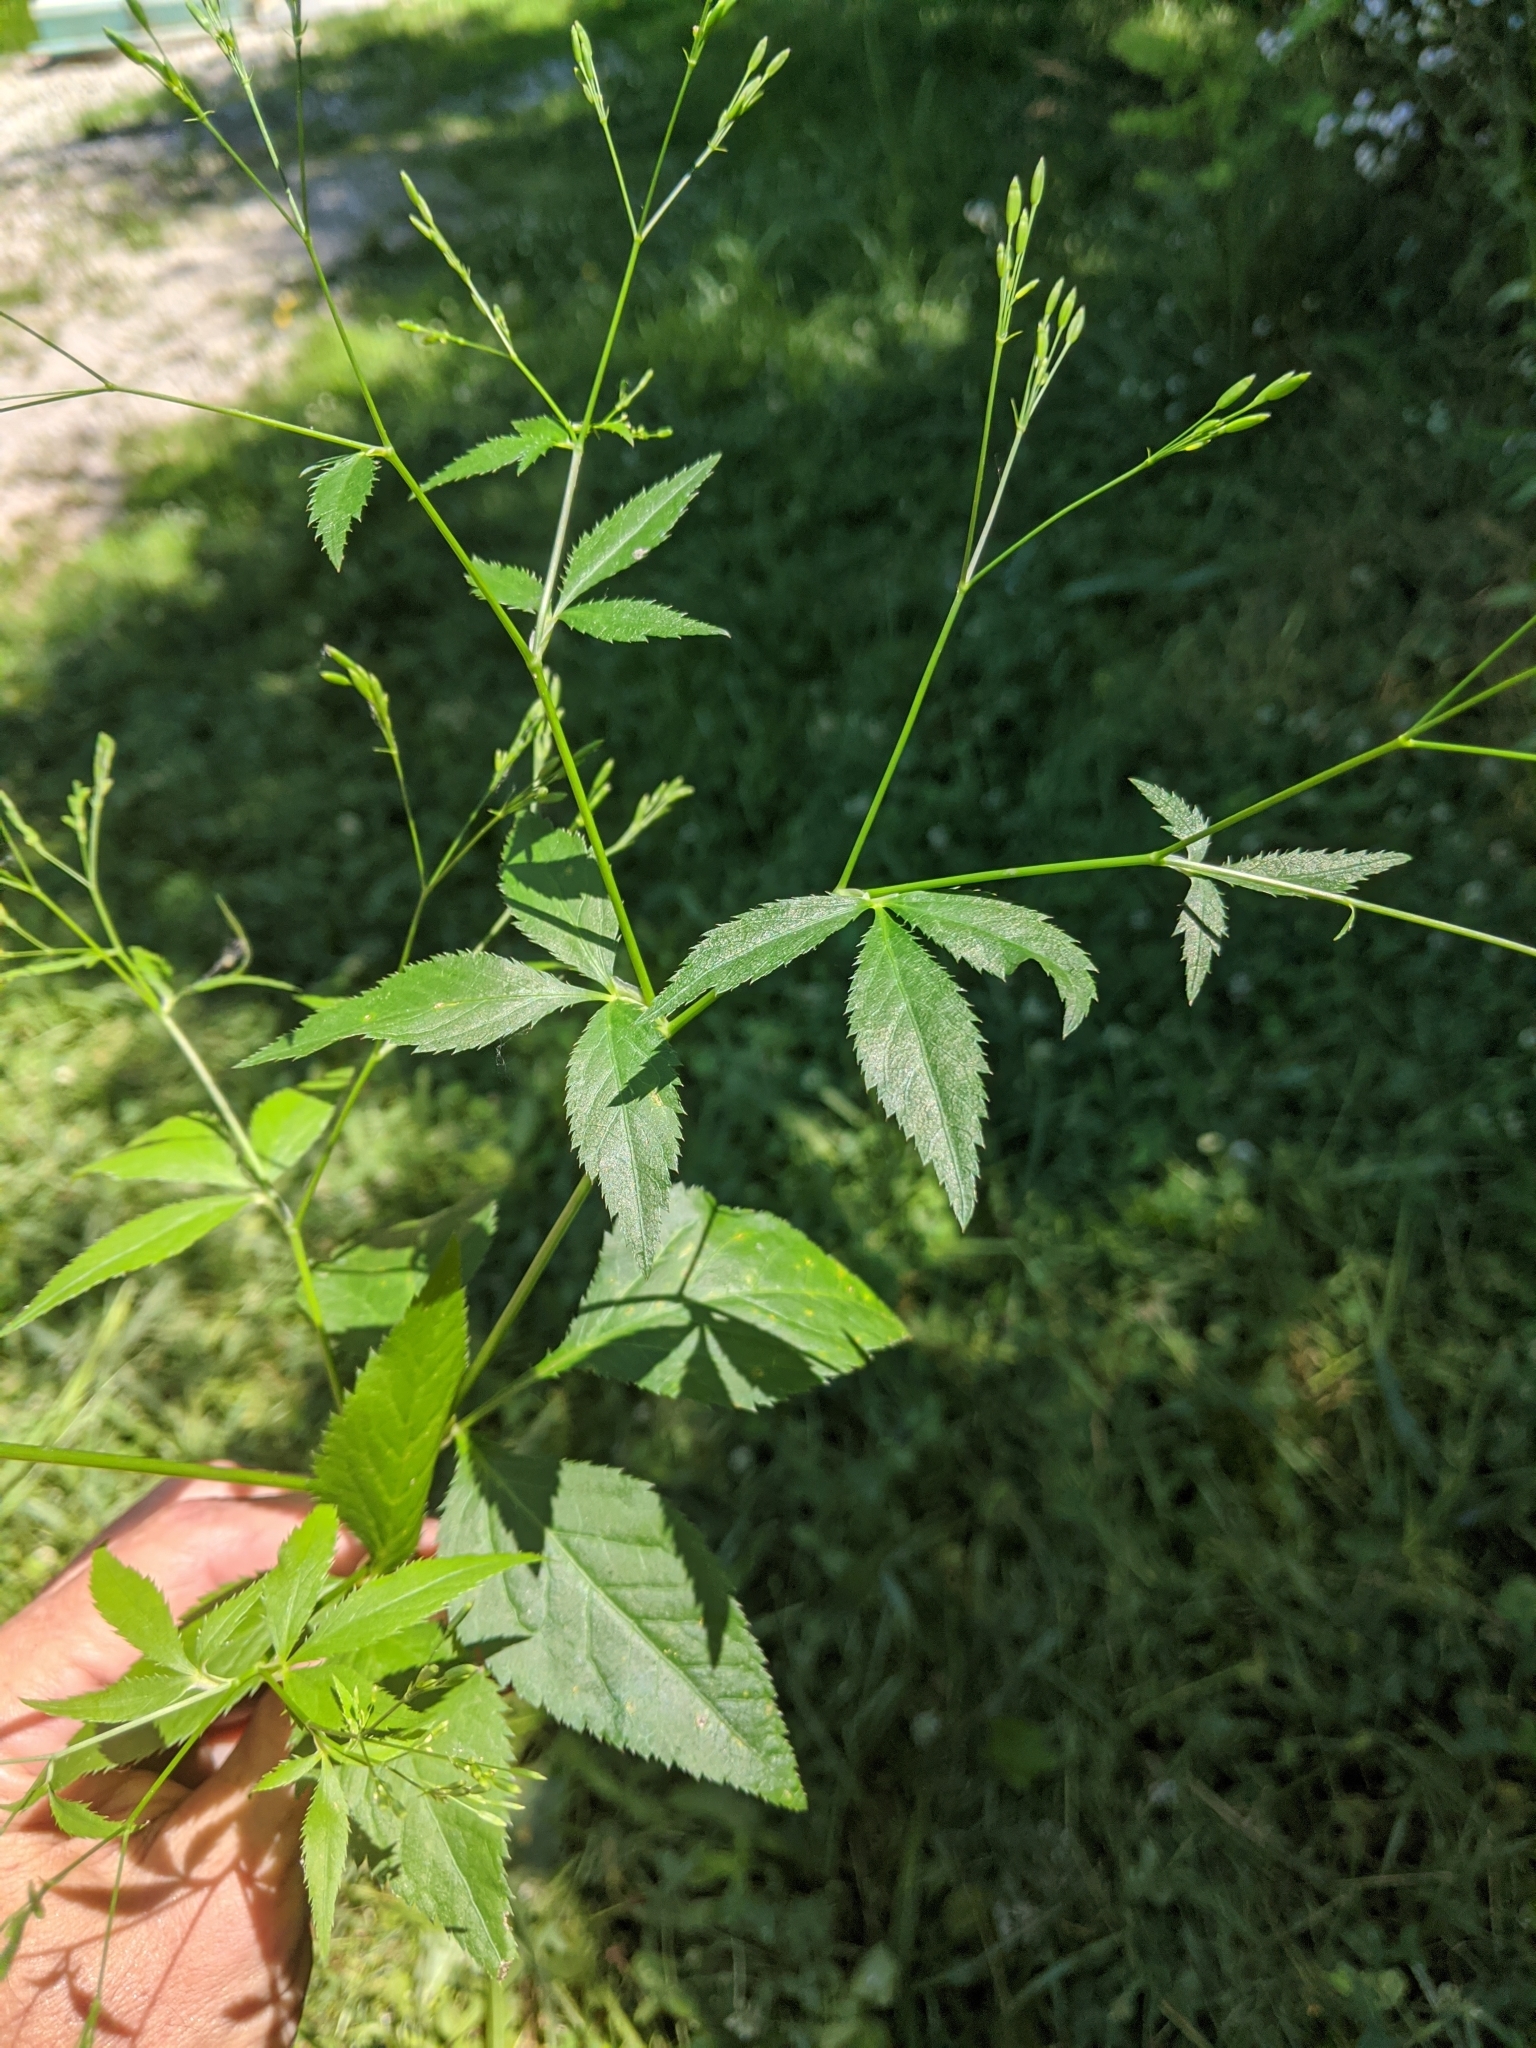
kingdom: Plantae
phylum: Tracheophyta
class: Magnoliopsida
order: Apiales
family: Apiaceae
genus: Cryptotaenia
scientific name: Cryptotaenia canadensis
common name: Honewort
